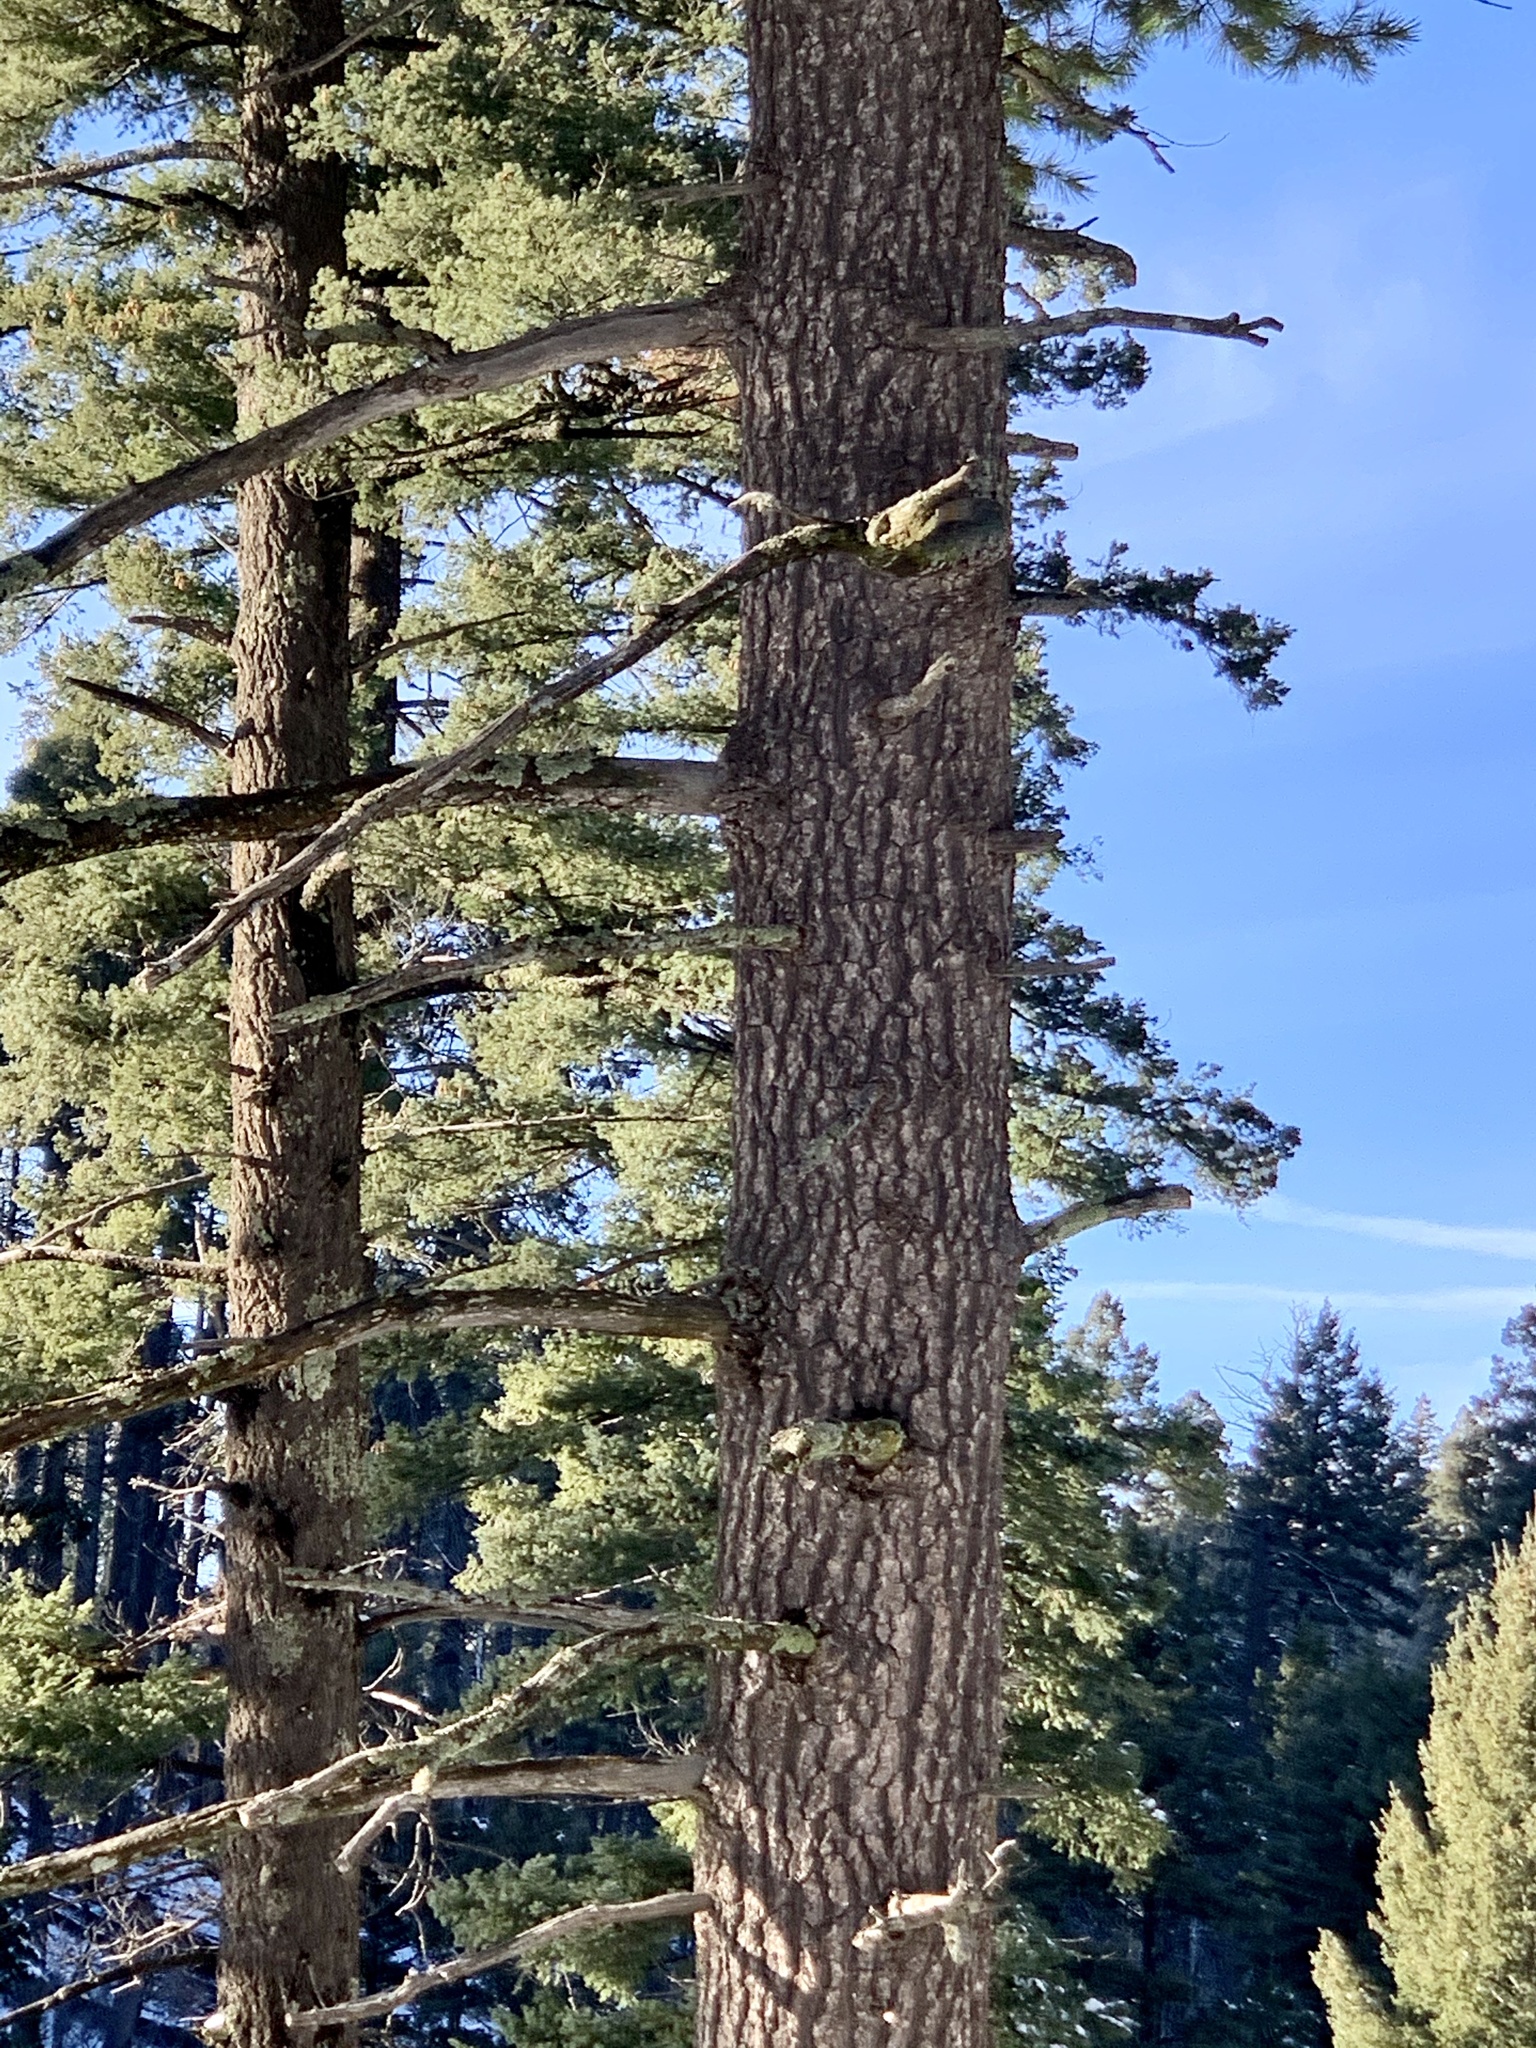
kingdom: Plantae
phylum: Tracheophyta
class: Pinopsida
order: Pinales
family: Pinaceae
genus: Pinus
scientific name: Pinus strobiformis
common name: Southwestern white pine
